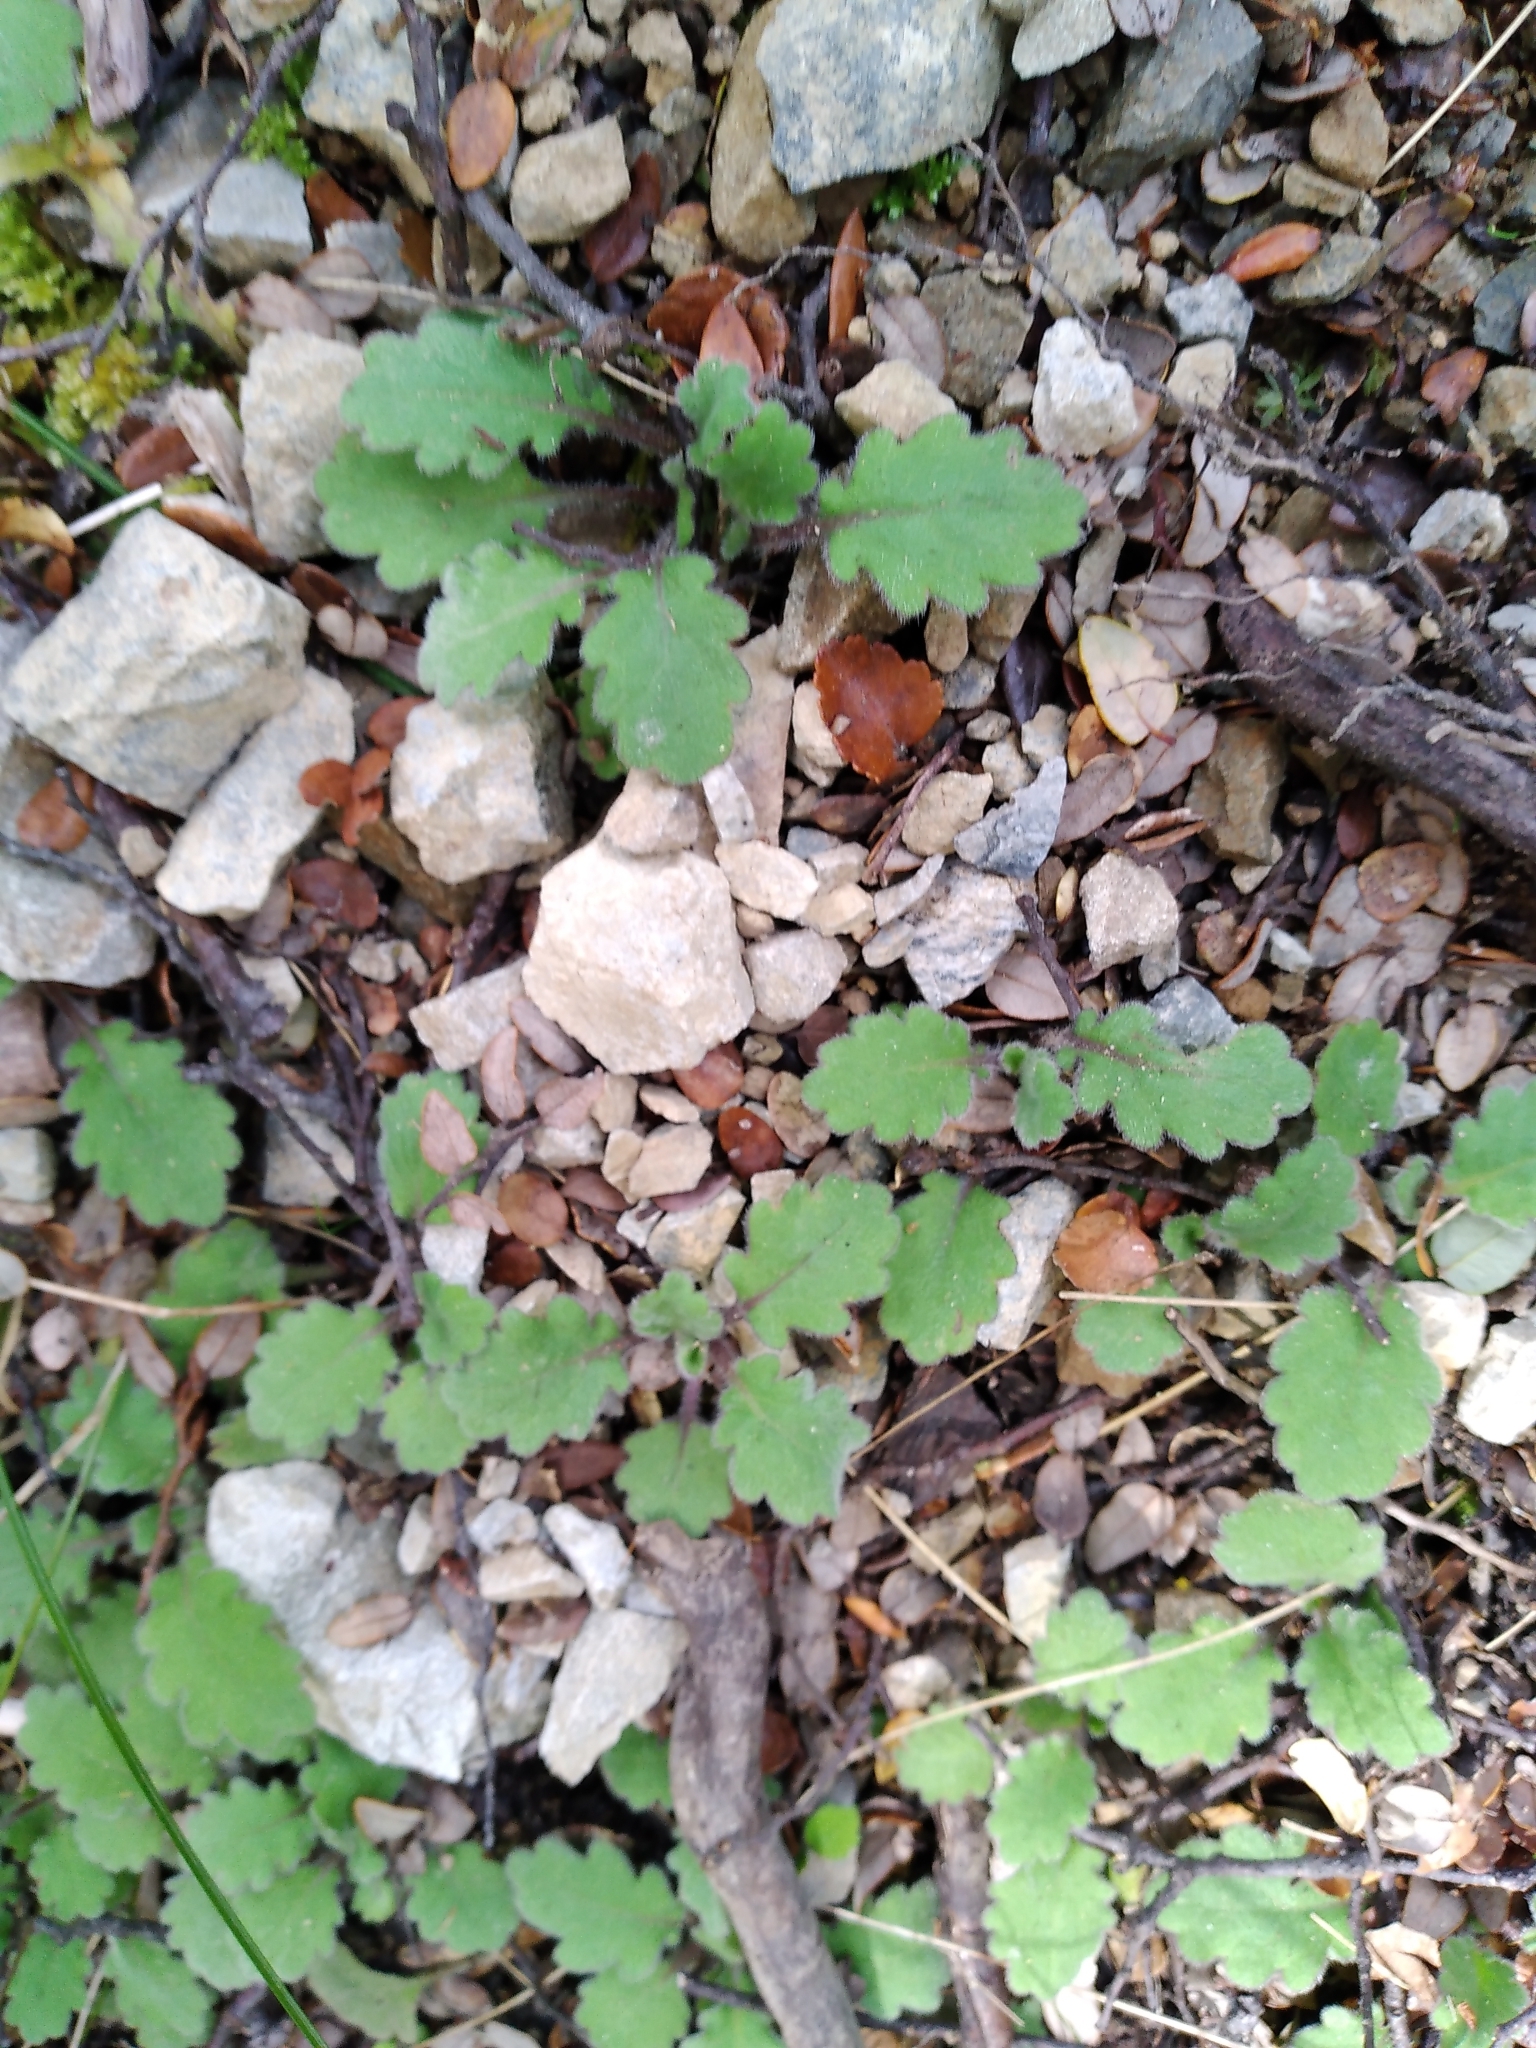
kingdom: Plantae
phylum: Tracheophyta
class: Magnoliopsida
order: Asterales
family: Asteraceae
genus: Lagenophora
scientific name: Lagenophora pinnatifida
